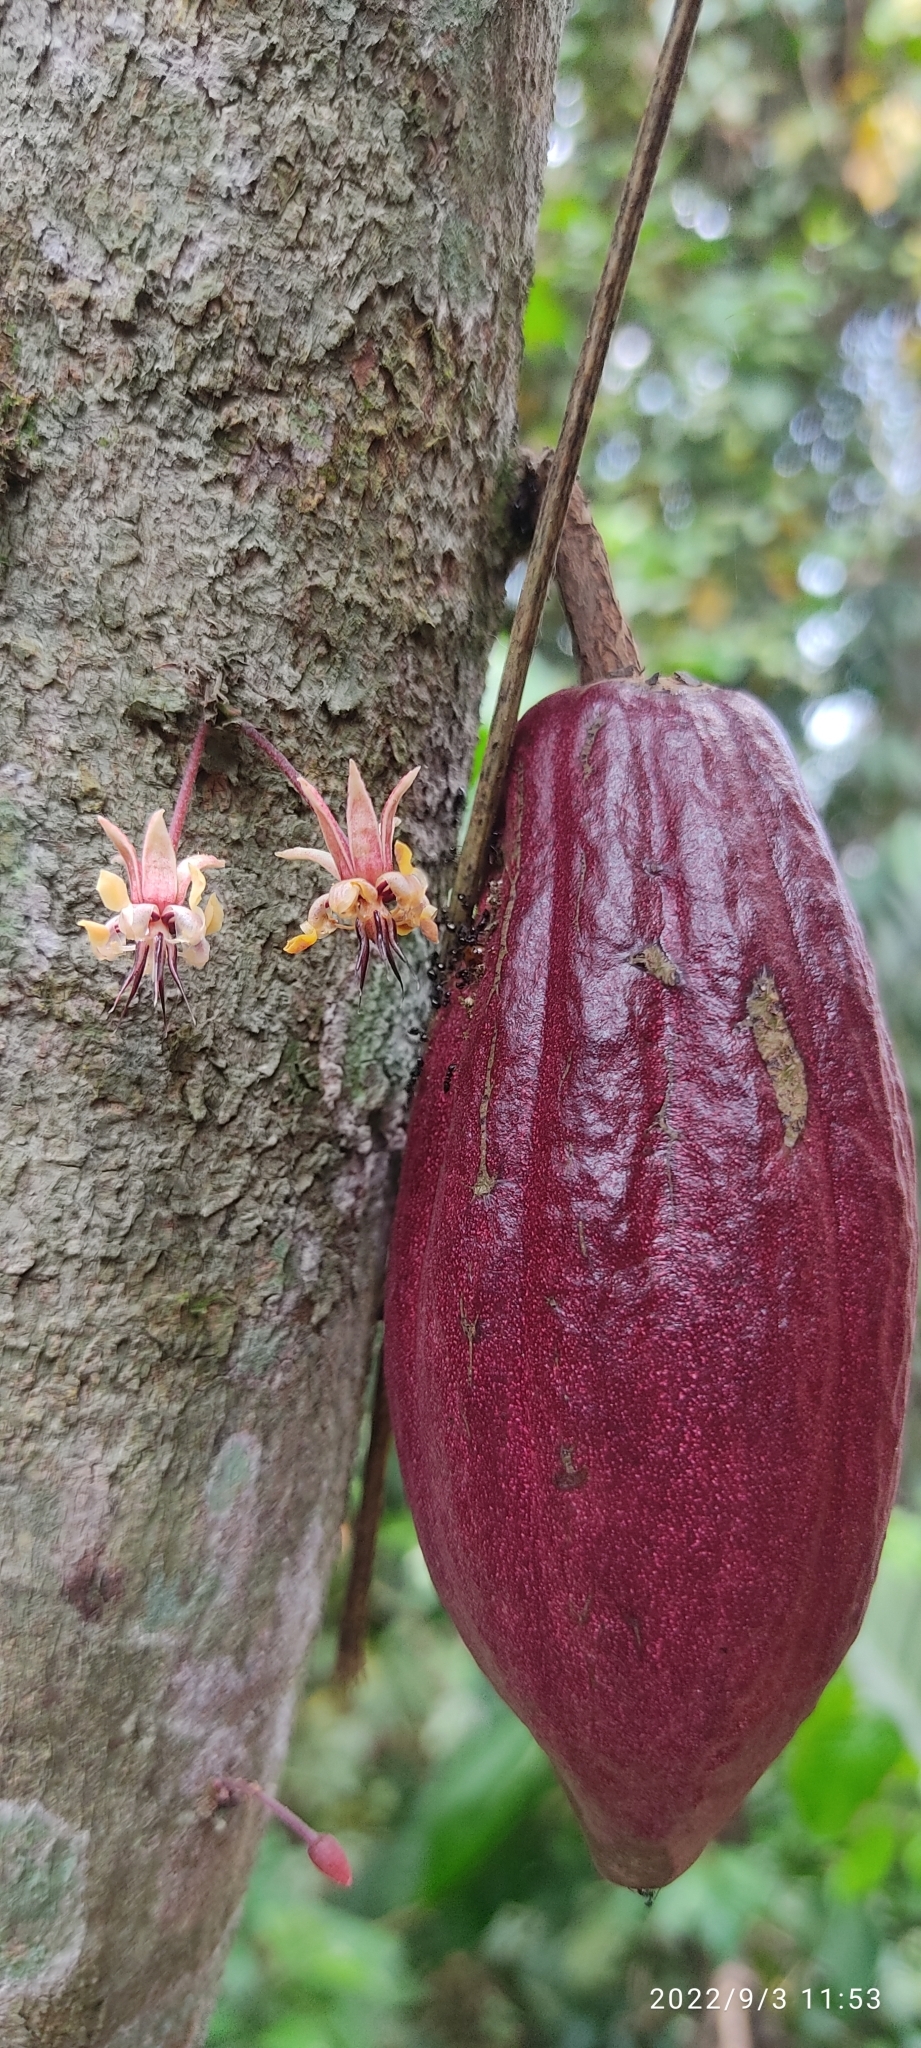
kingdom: Plantae
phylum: Tracheophyta
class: Magnoliopsida
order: Malvales
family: Malvaceae
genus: Theobroma
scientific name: Theobroma cacao
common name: Cocoa
